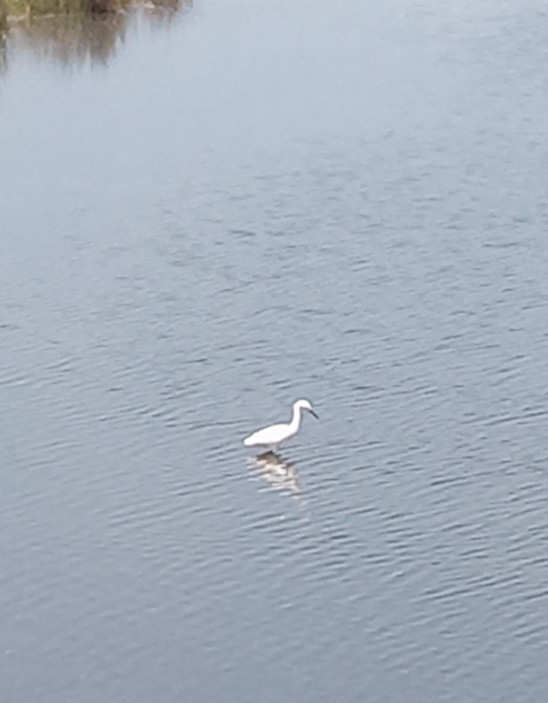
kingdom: Animalia
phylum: Chordata
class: Aves
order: Pelecaniformes
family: Ardeidae
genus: Egretta
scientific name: Egretta thula
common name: Snowy egret
